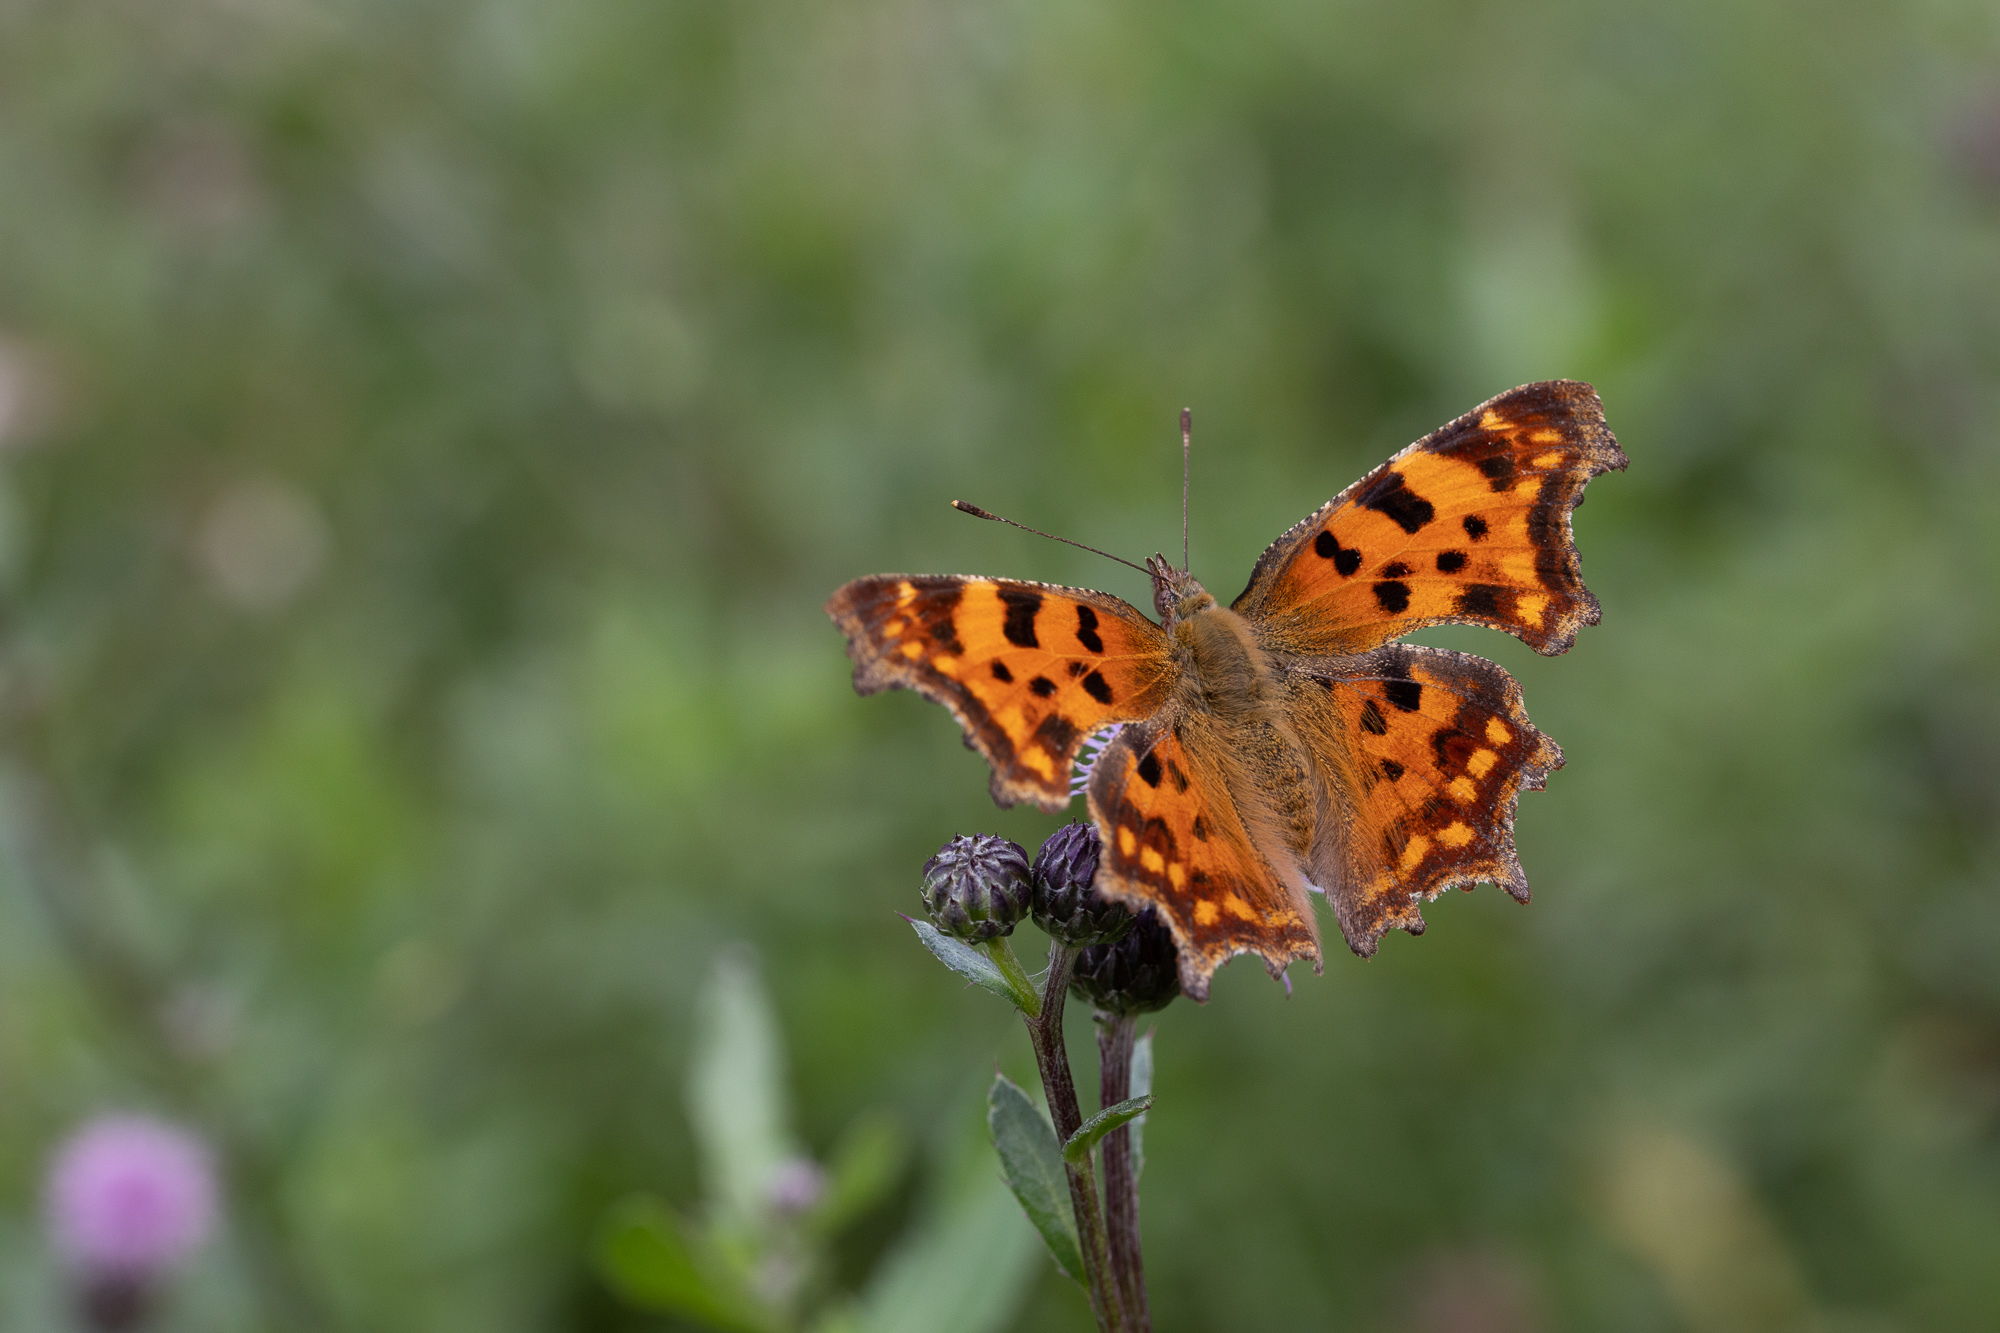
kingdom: Animalia
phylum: Arthropoda
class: Insecta
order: Lepidoptera
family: Nymphalidae
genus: Polygonia
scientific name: Polygonia c-album
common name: Comma
